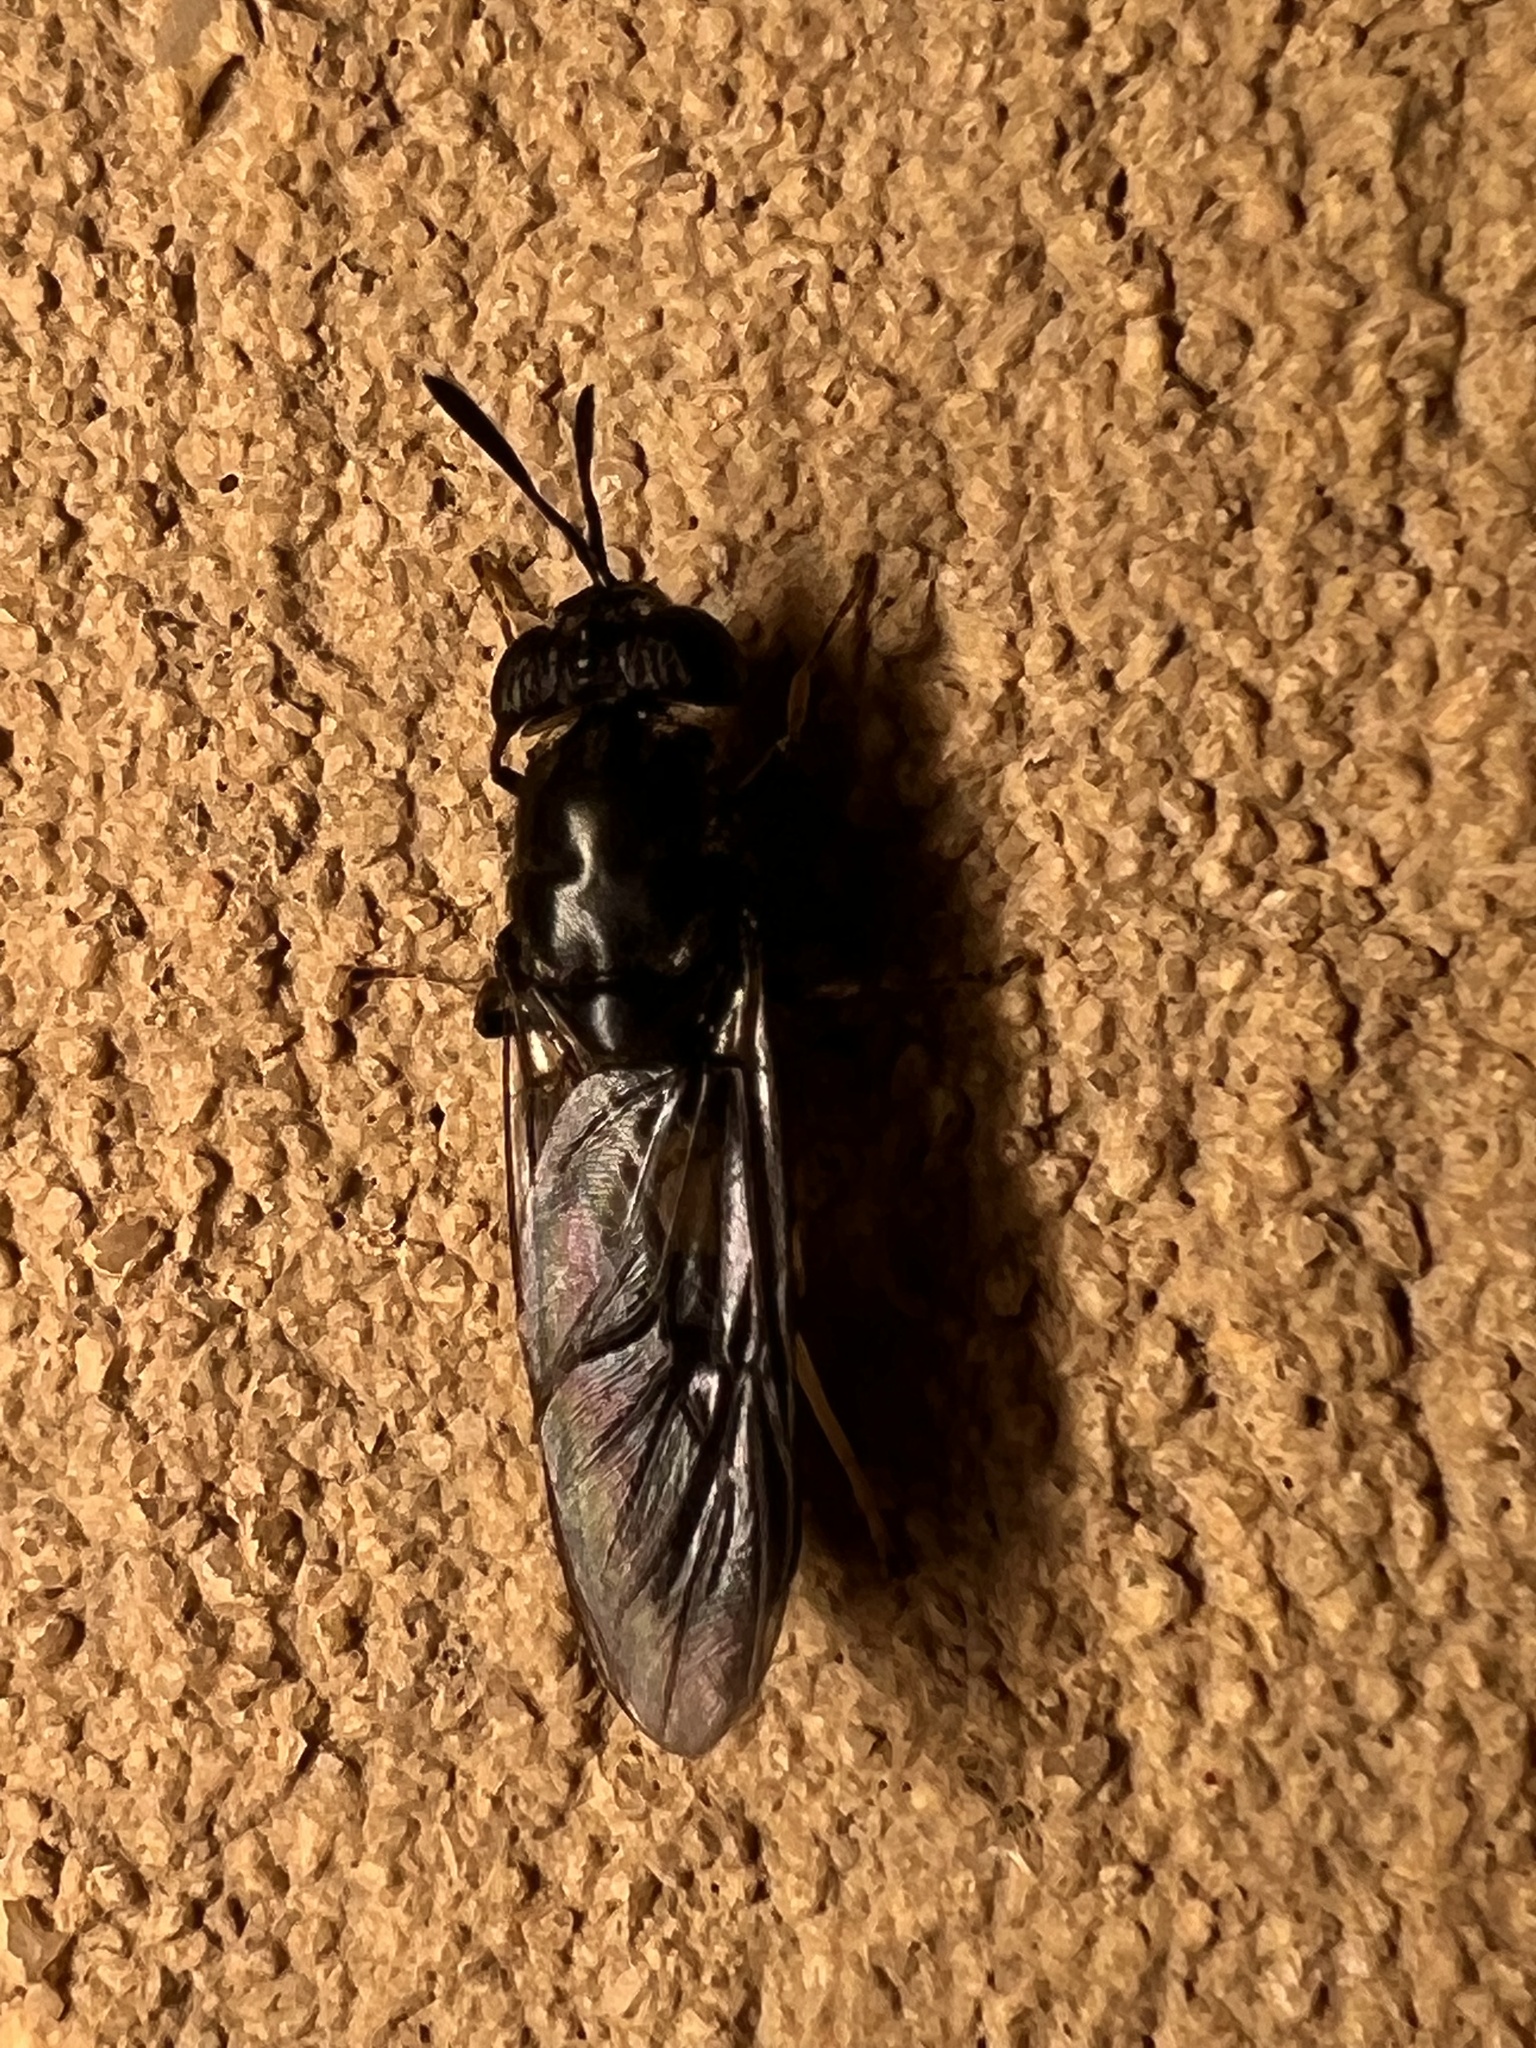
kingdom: Animalia
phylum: Arthropoda
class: Insecta
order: Diptera
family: Stratiomyidae
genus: Hermetia
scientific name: Hermetia illucens
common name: Black soldier fly
